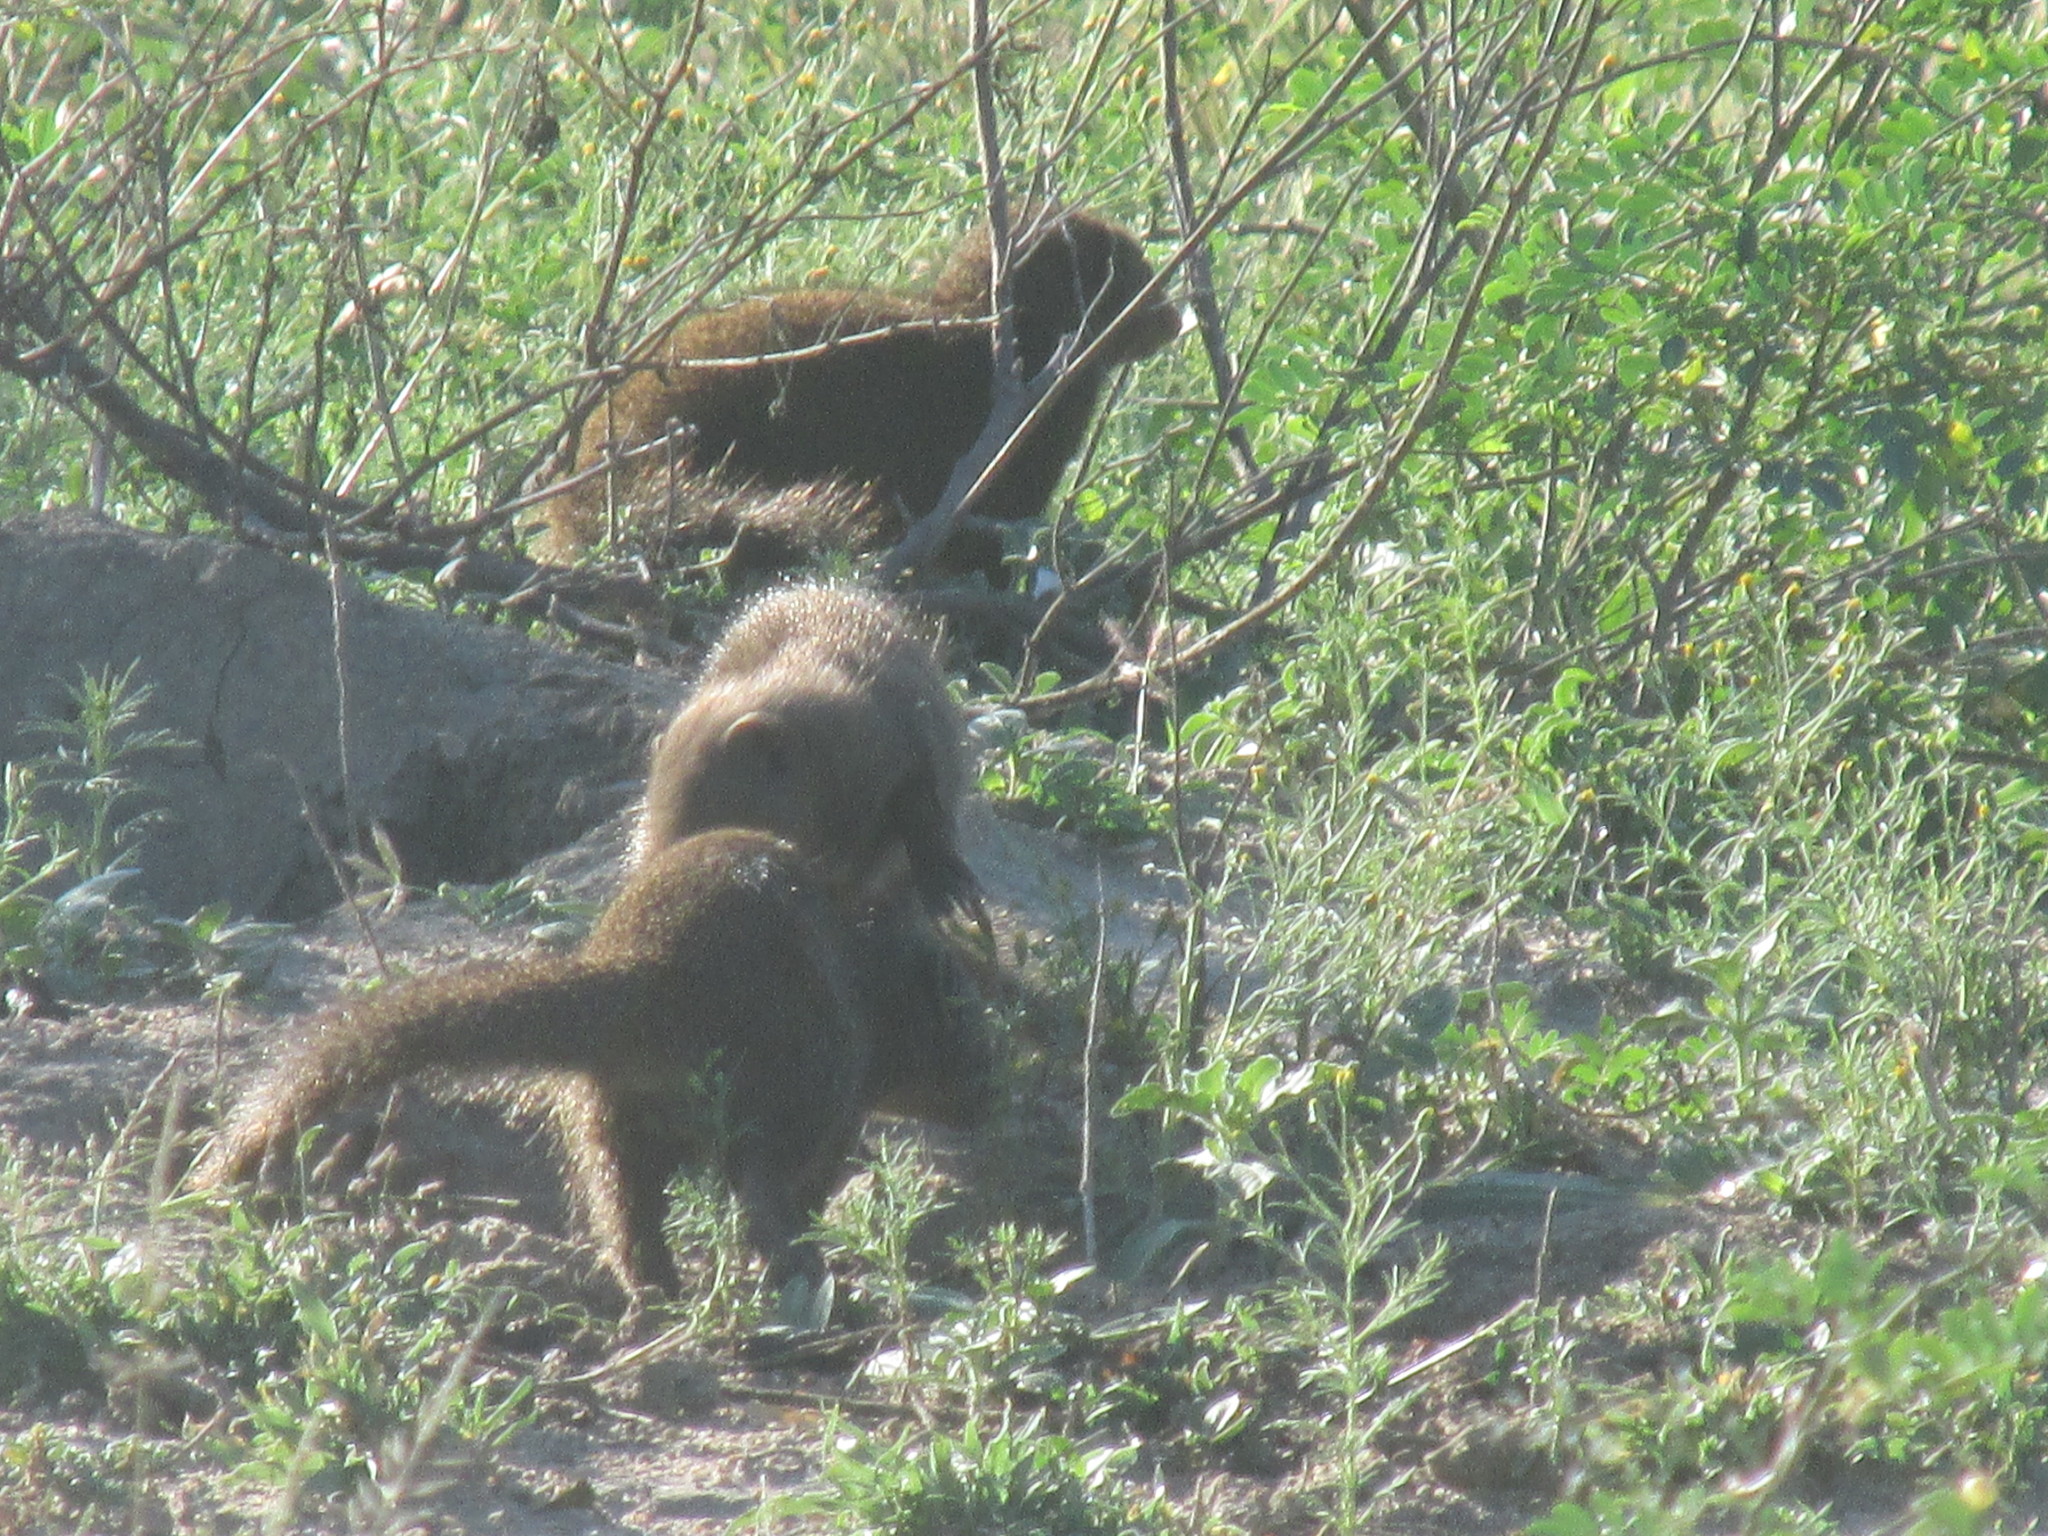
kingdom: Animalia
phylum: Chordata
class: Mammalia
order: Carnivora
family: Herpestidae
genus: Helogale
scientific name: Helogale parvula
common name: Common dwarf mongoose
